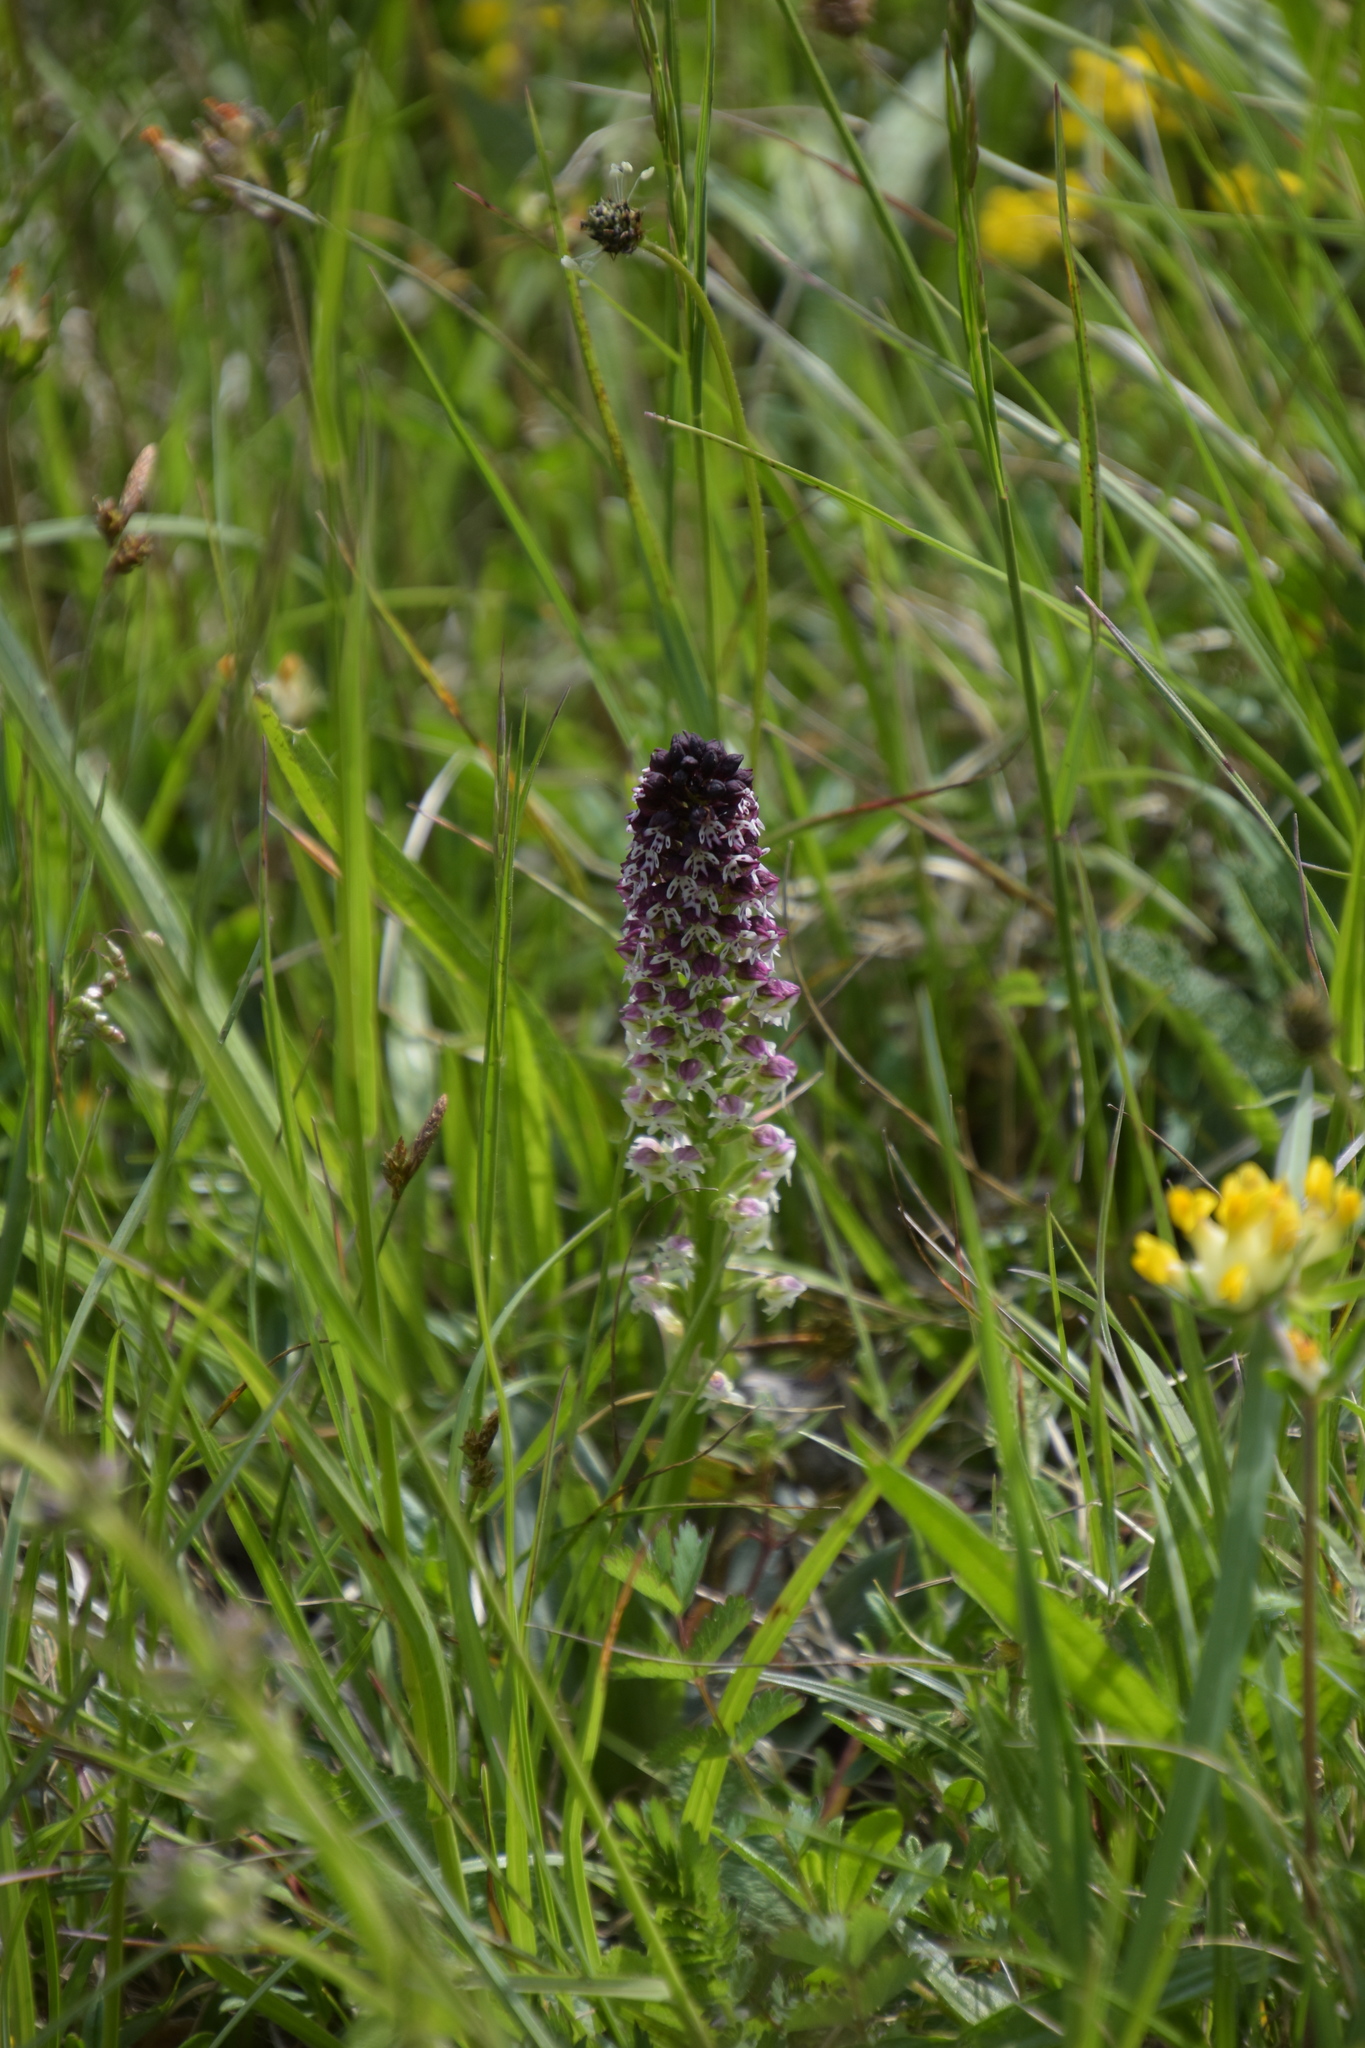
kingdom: Plantae
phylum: Tracheophyta
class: Liliopsida
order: Asparagales
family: Orchidaceae
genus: Neotinea
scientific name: Neotinea ustulata
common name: Burnt orchid
